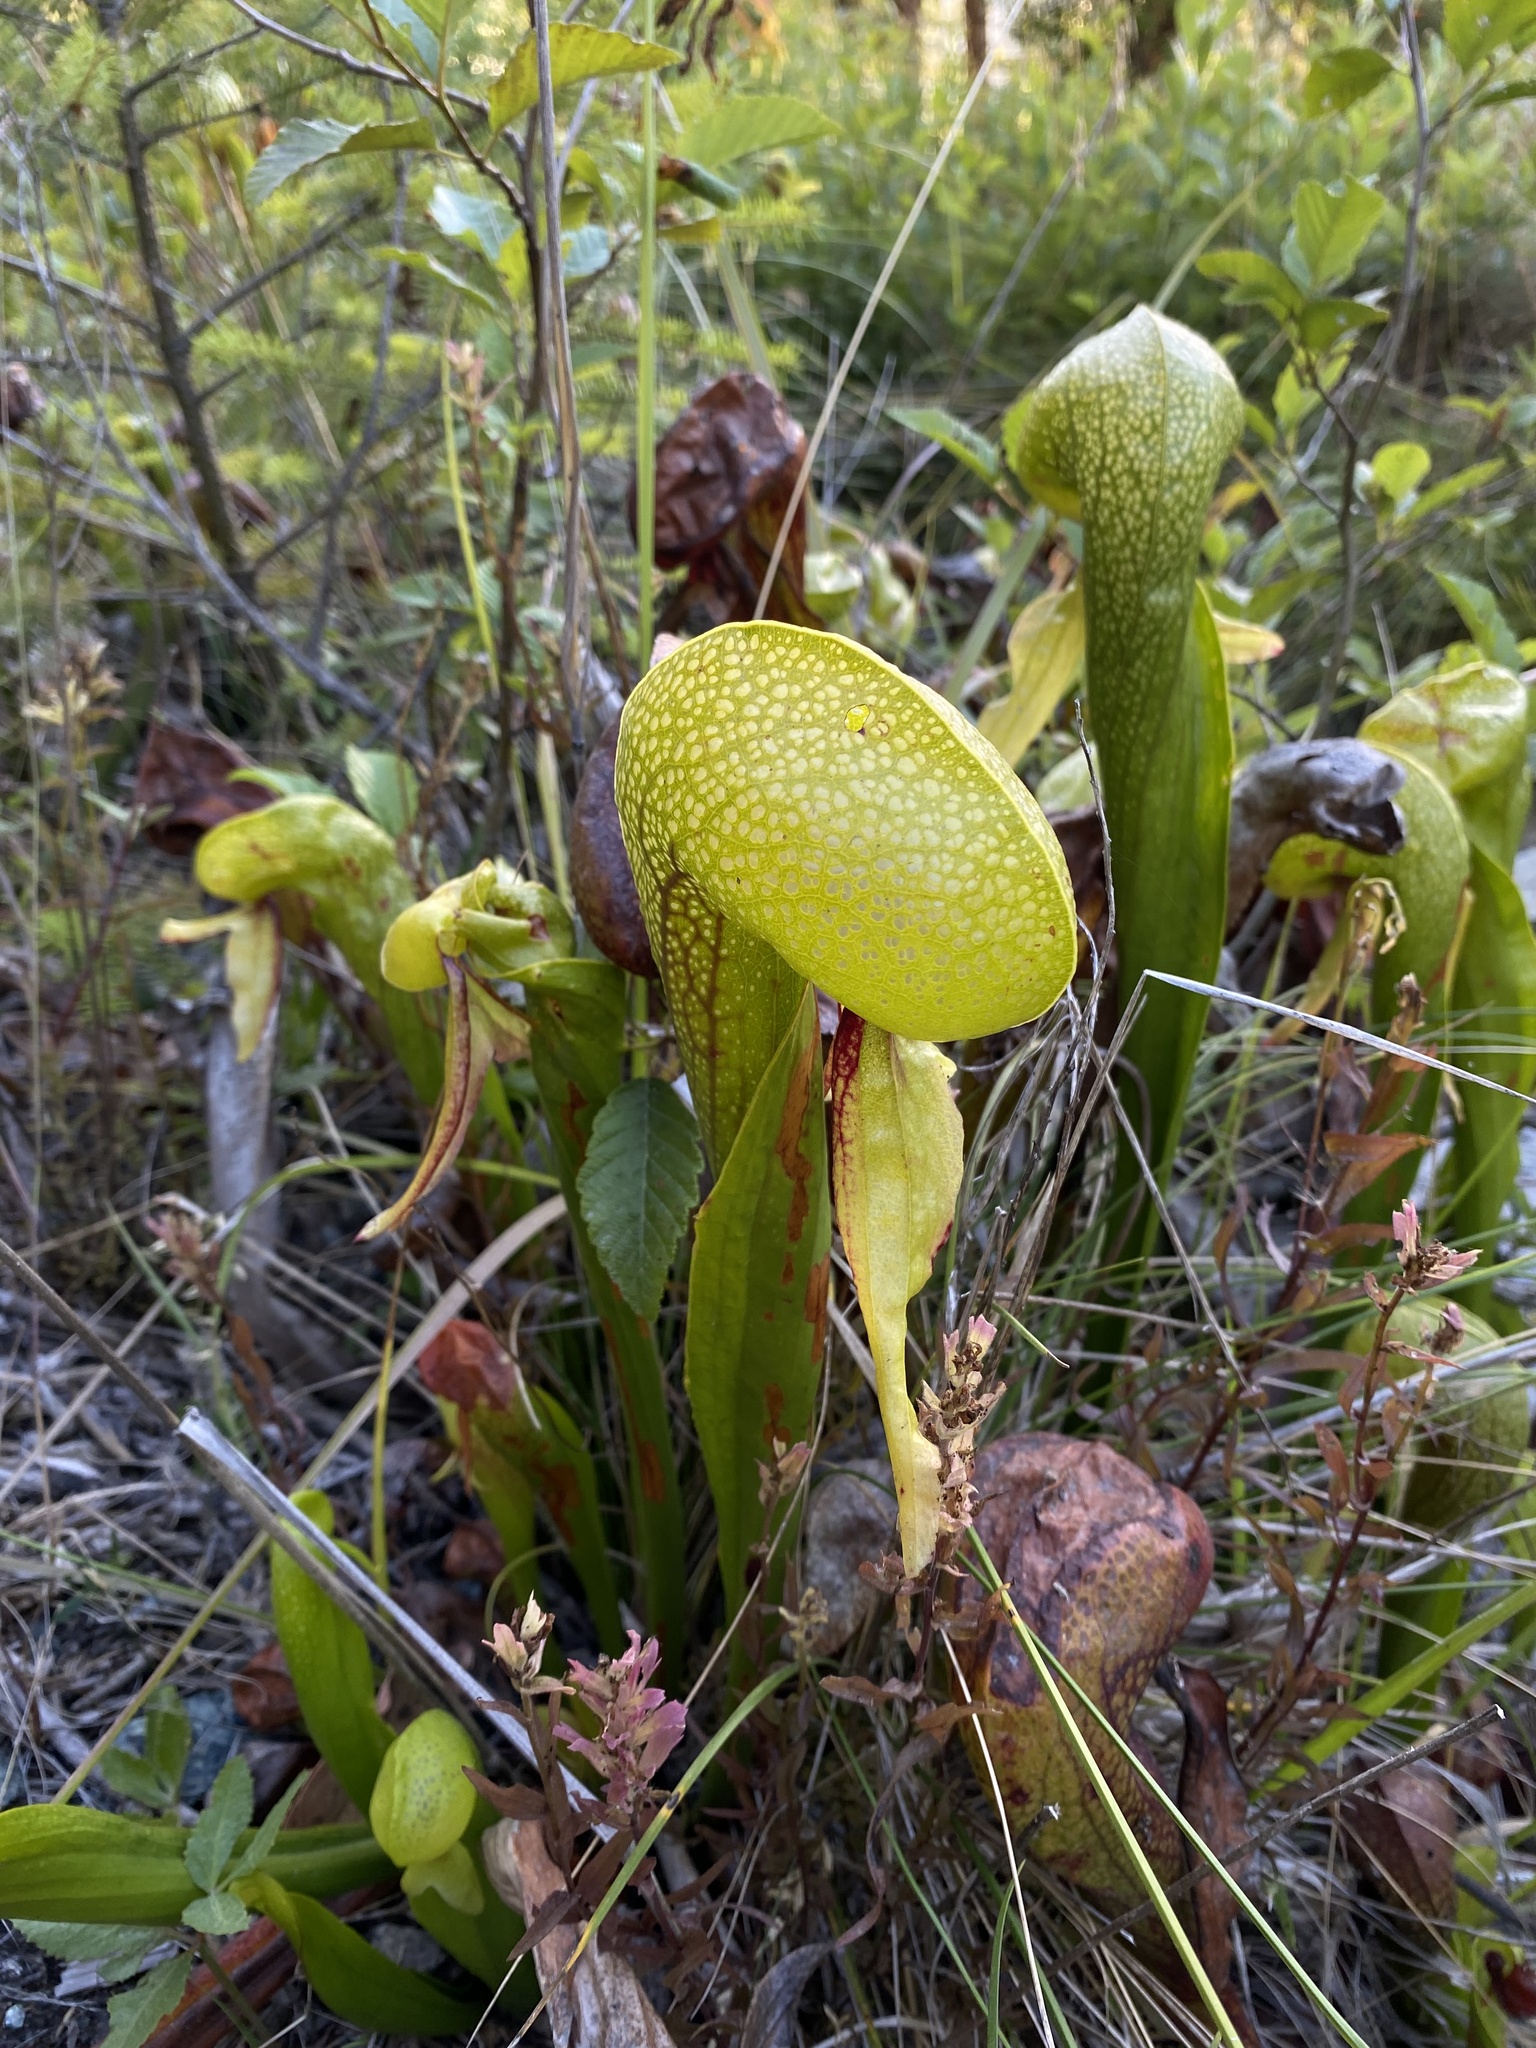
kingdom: Plantae
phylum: Tracheophyta
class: Magnoliopsida
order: Ericales
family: Sarraceniaceae
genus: Darlingtonia
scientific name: Darlingtonia californica
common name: California pitcher plant
